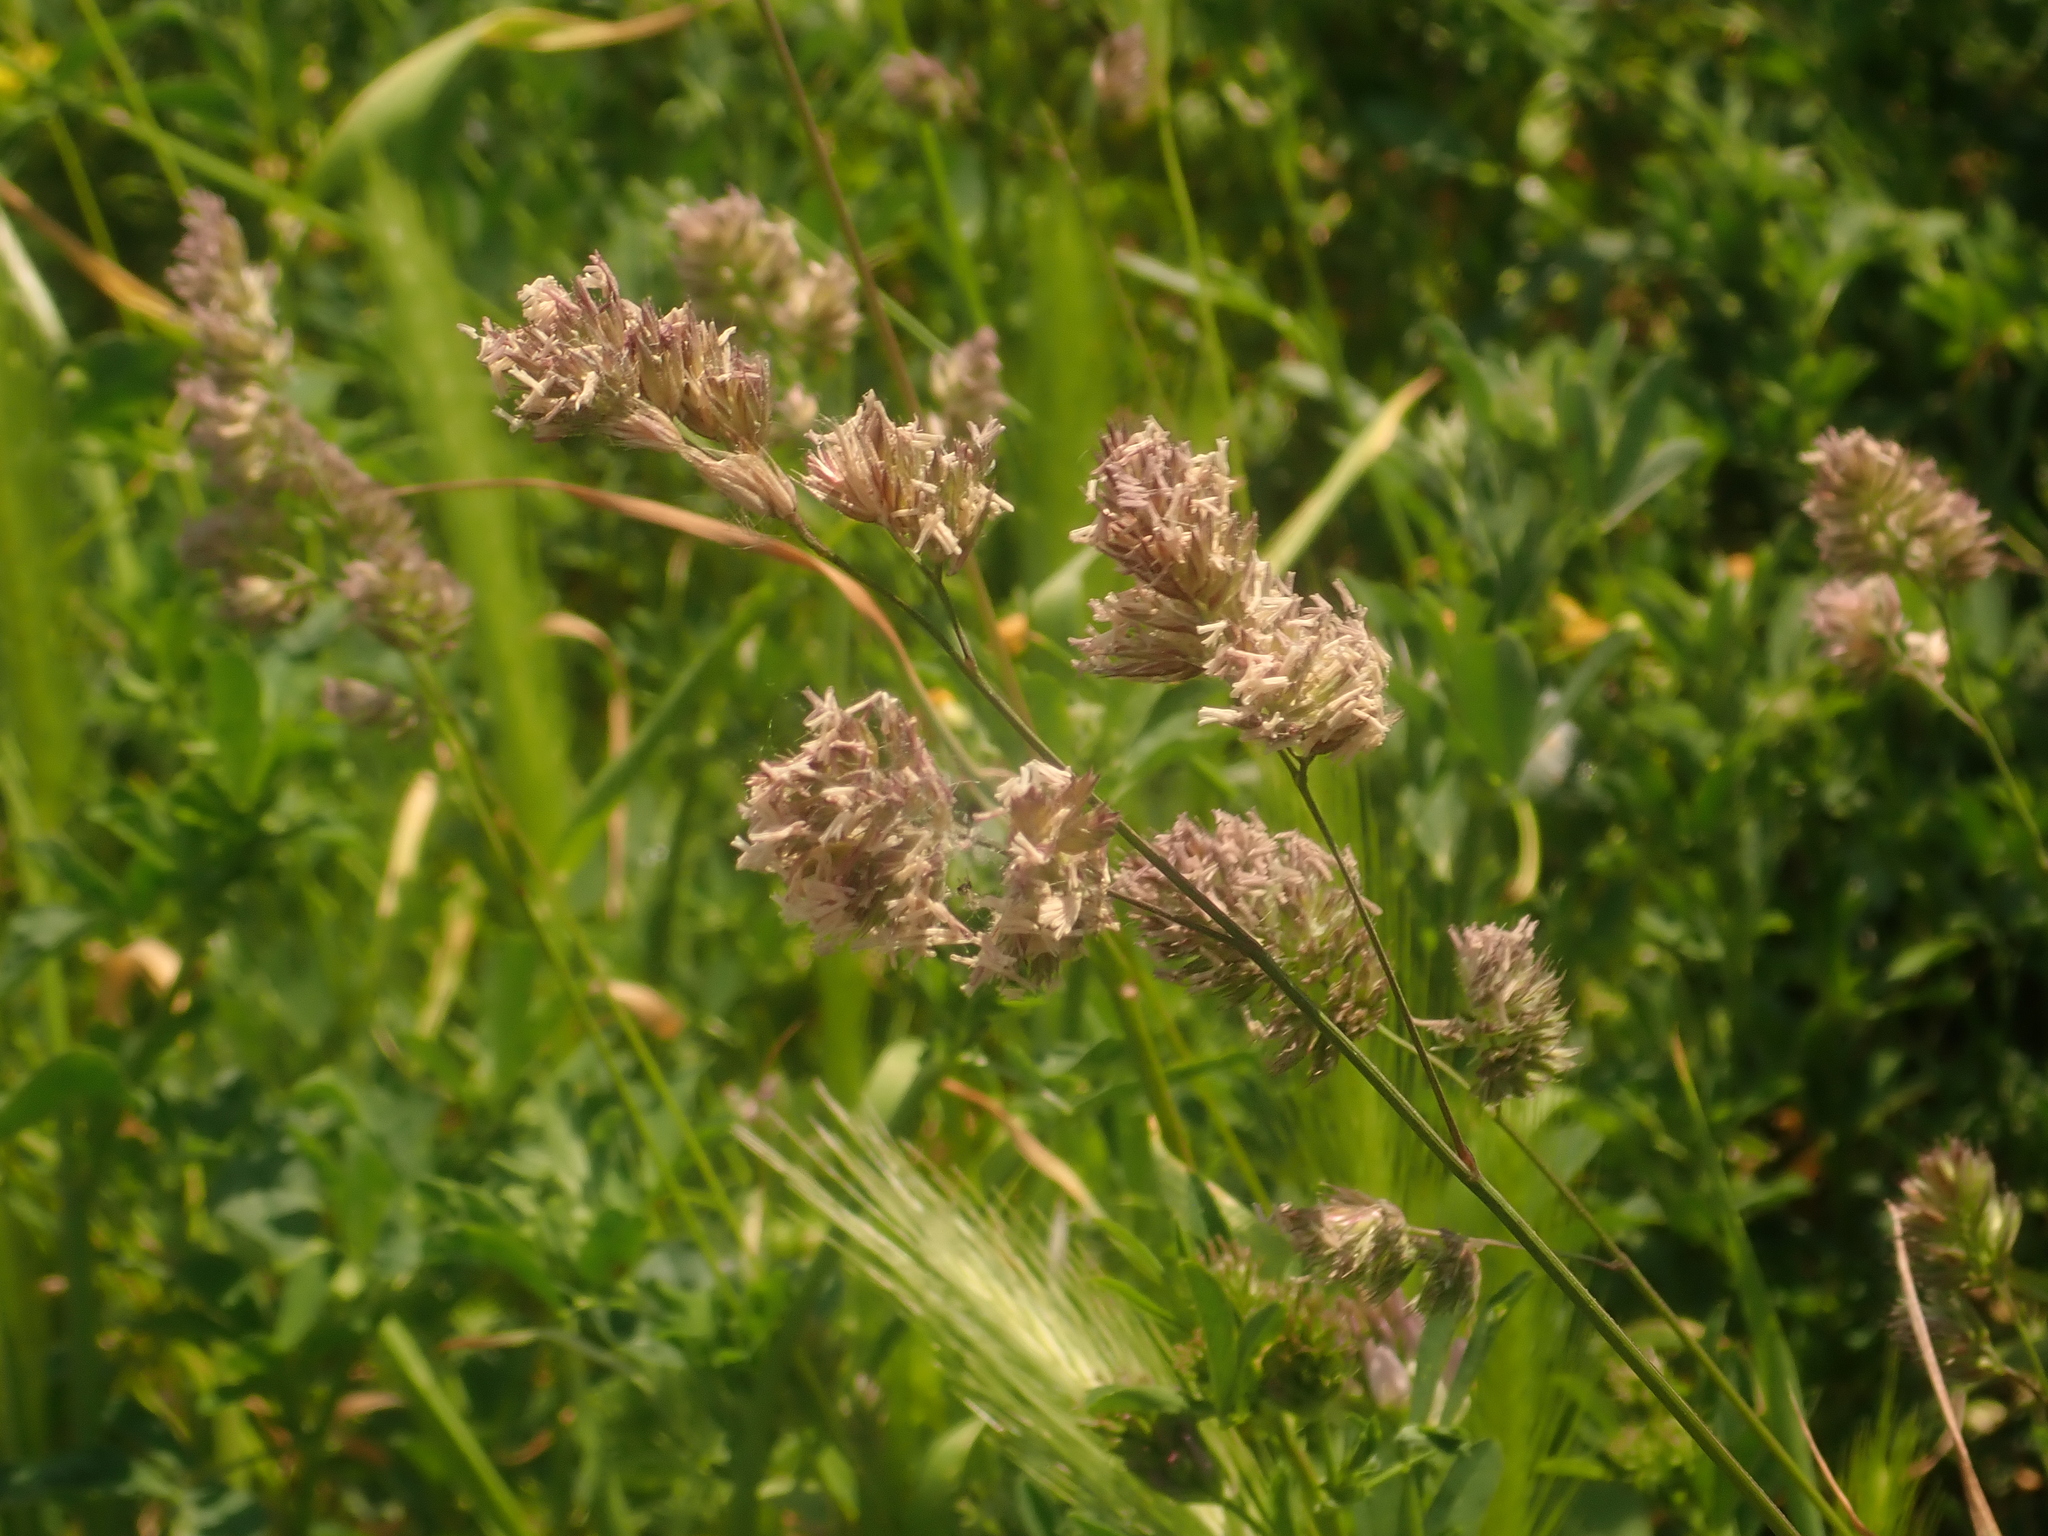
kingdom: Plantae
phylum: Tracheophyta
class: Liliopsida
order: Poales
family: Poaceae
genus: Dactylis
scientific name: Dactylis glomerata
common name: Orchardgrass
